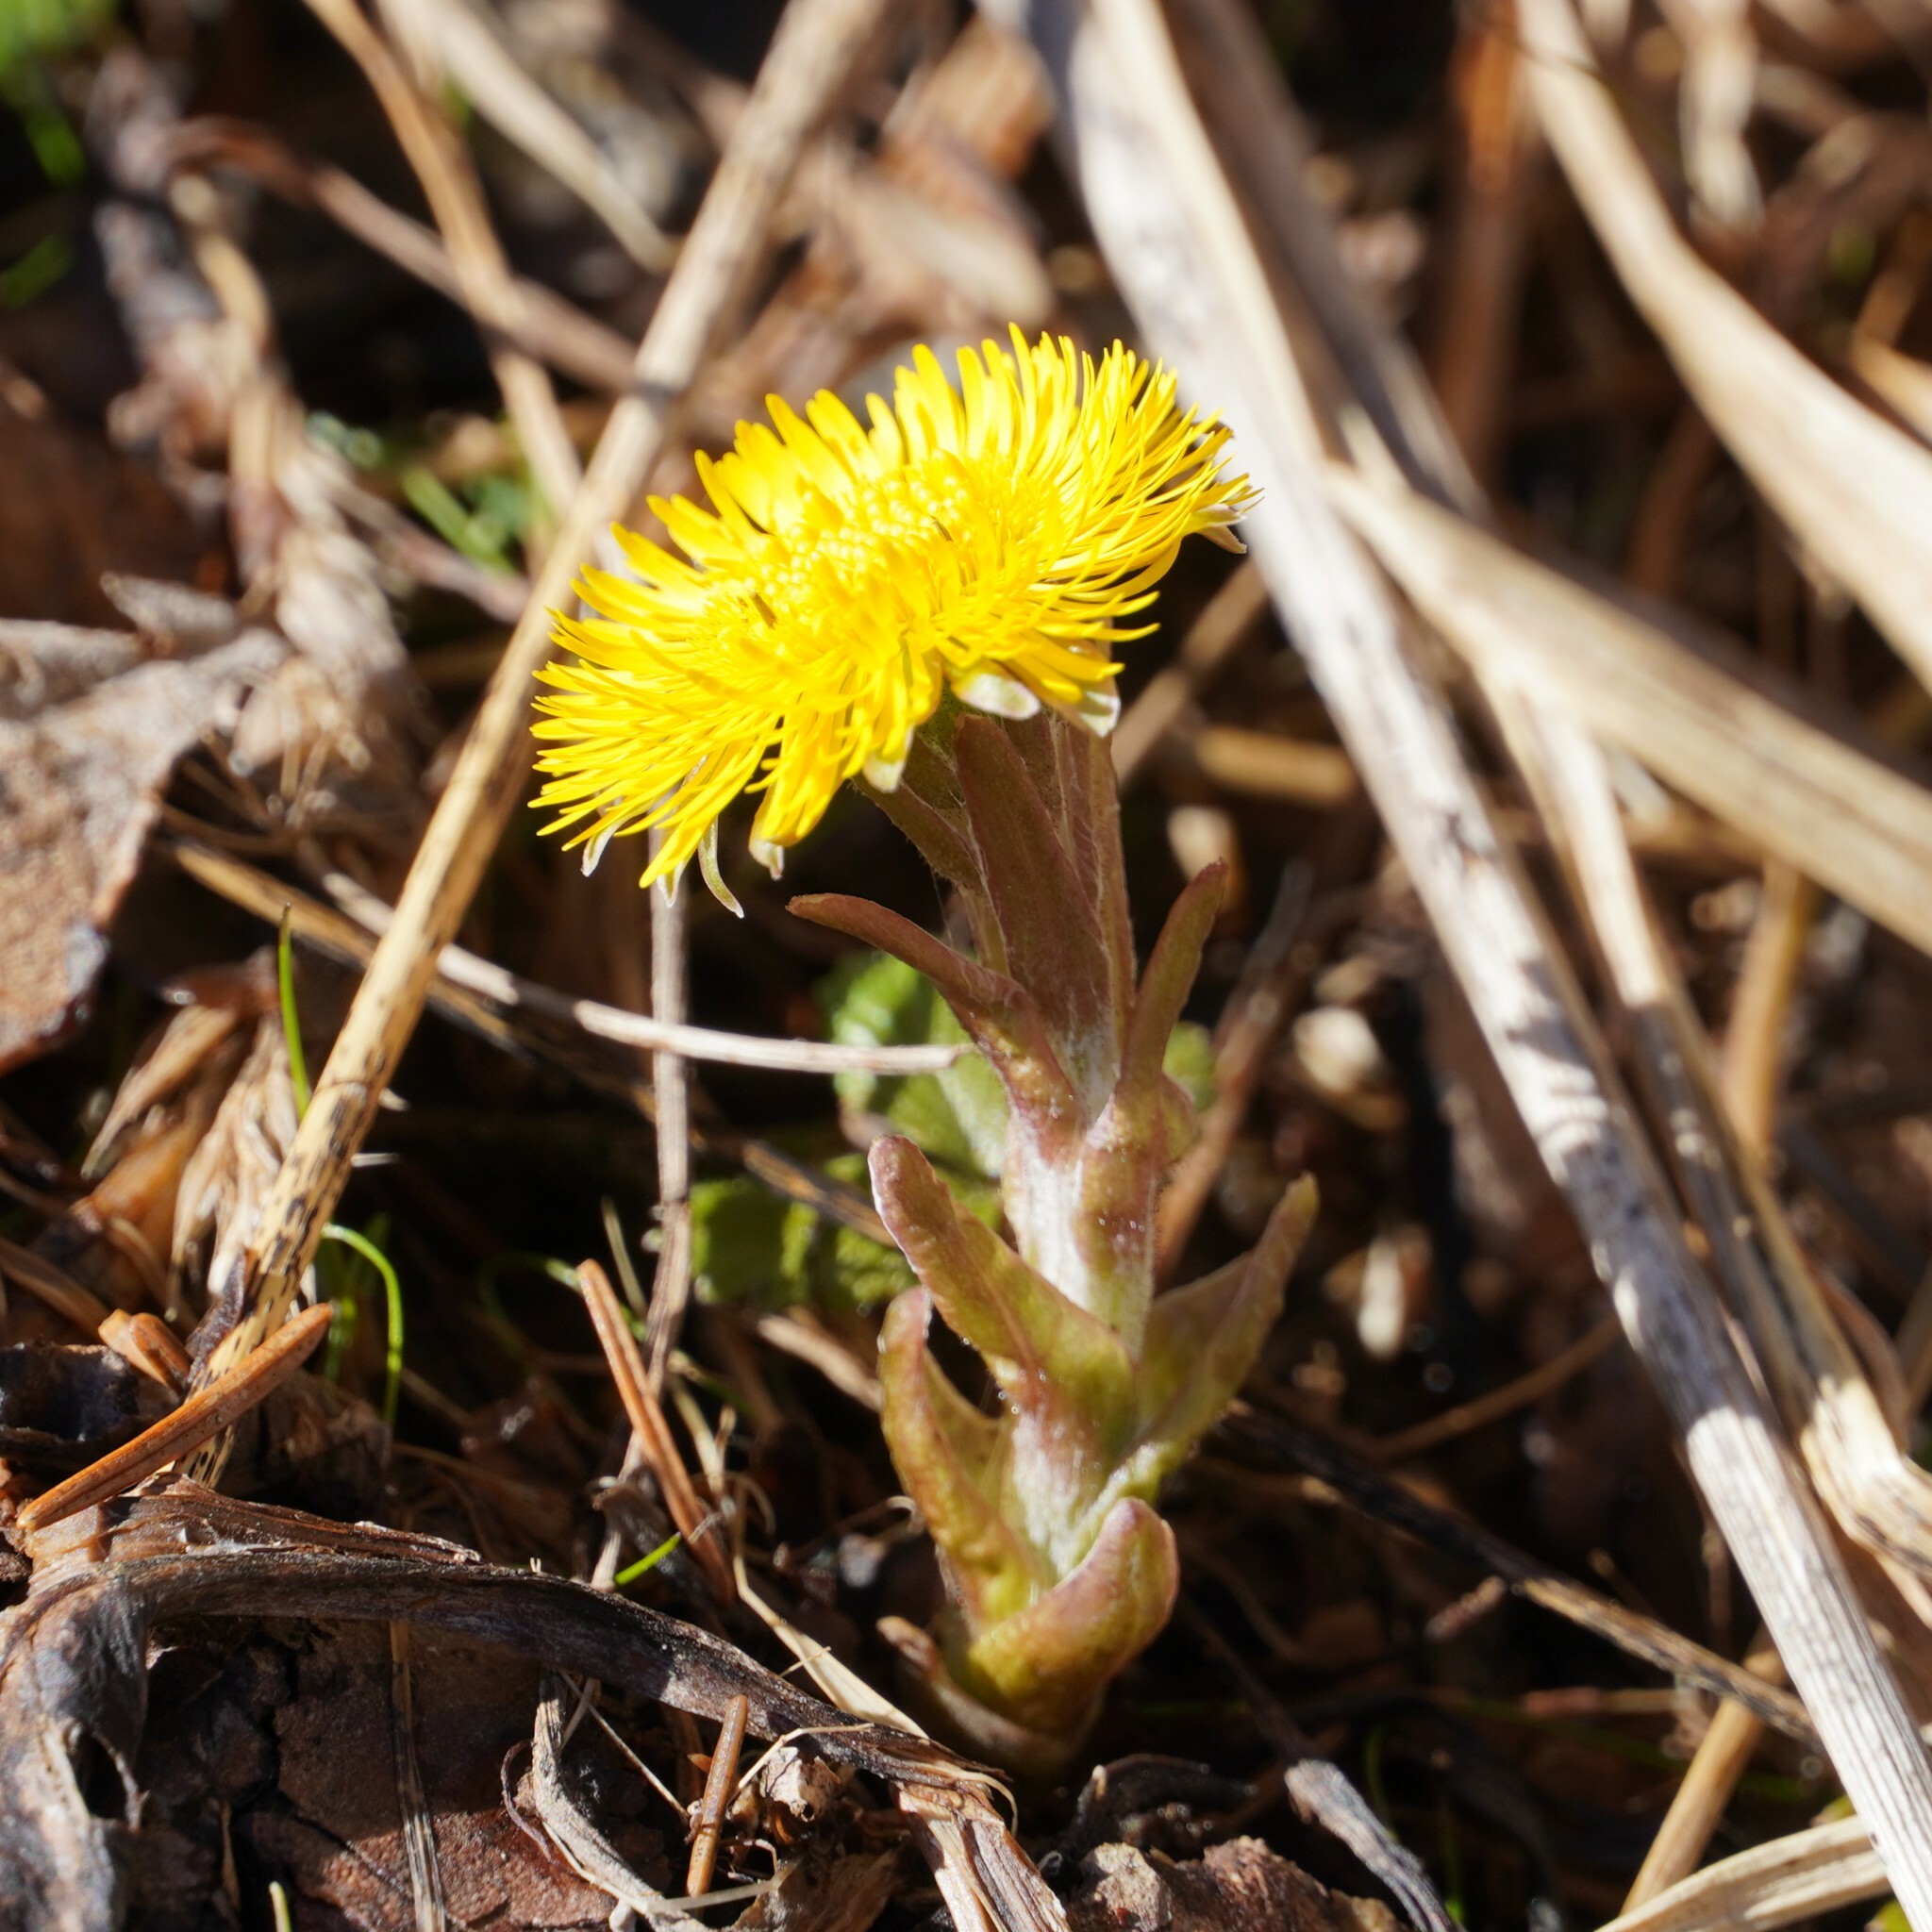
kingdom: Plantae
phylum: Tracheophyta
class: Magnoliopsida
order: Asterales
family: Asteraceae
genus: Tussilago
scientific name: Tussilago farfara
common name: Coltsfoot
